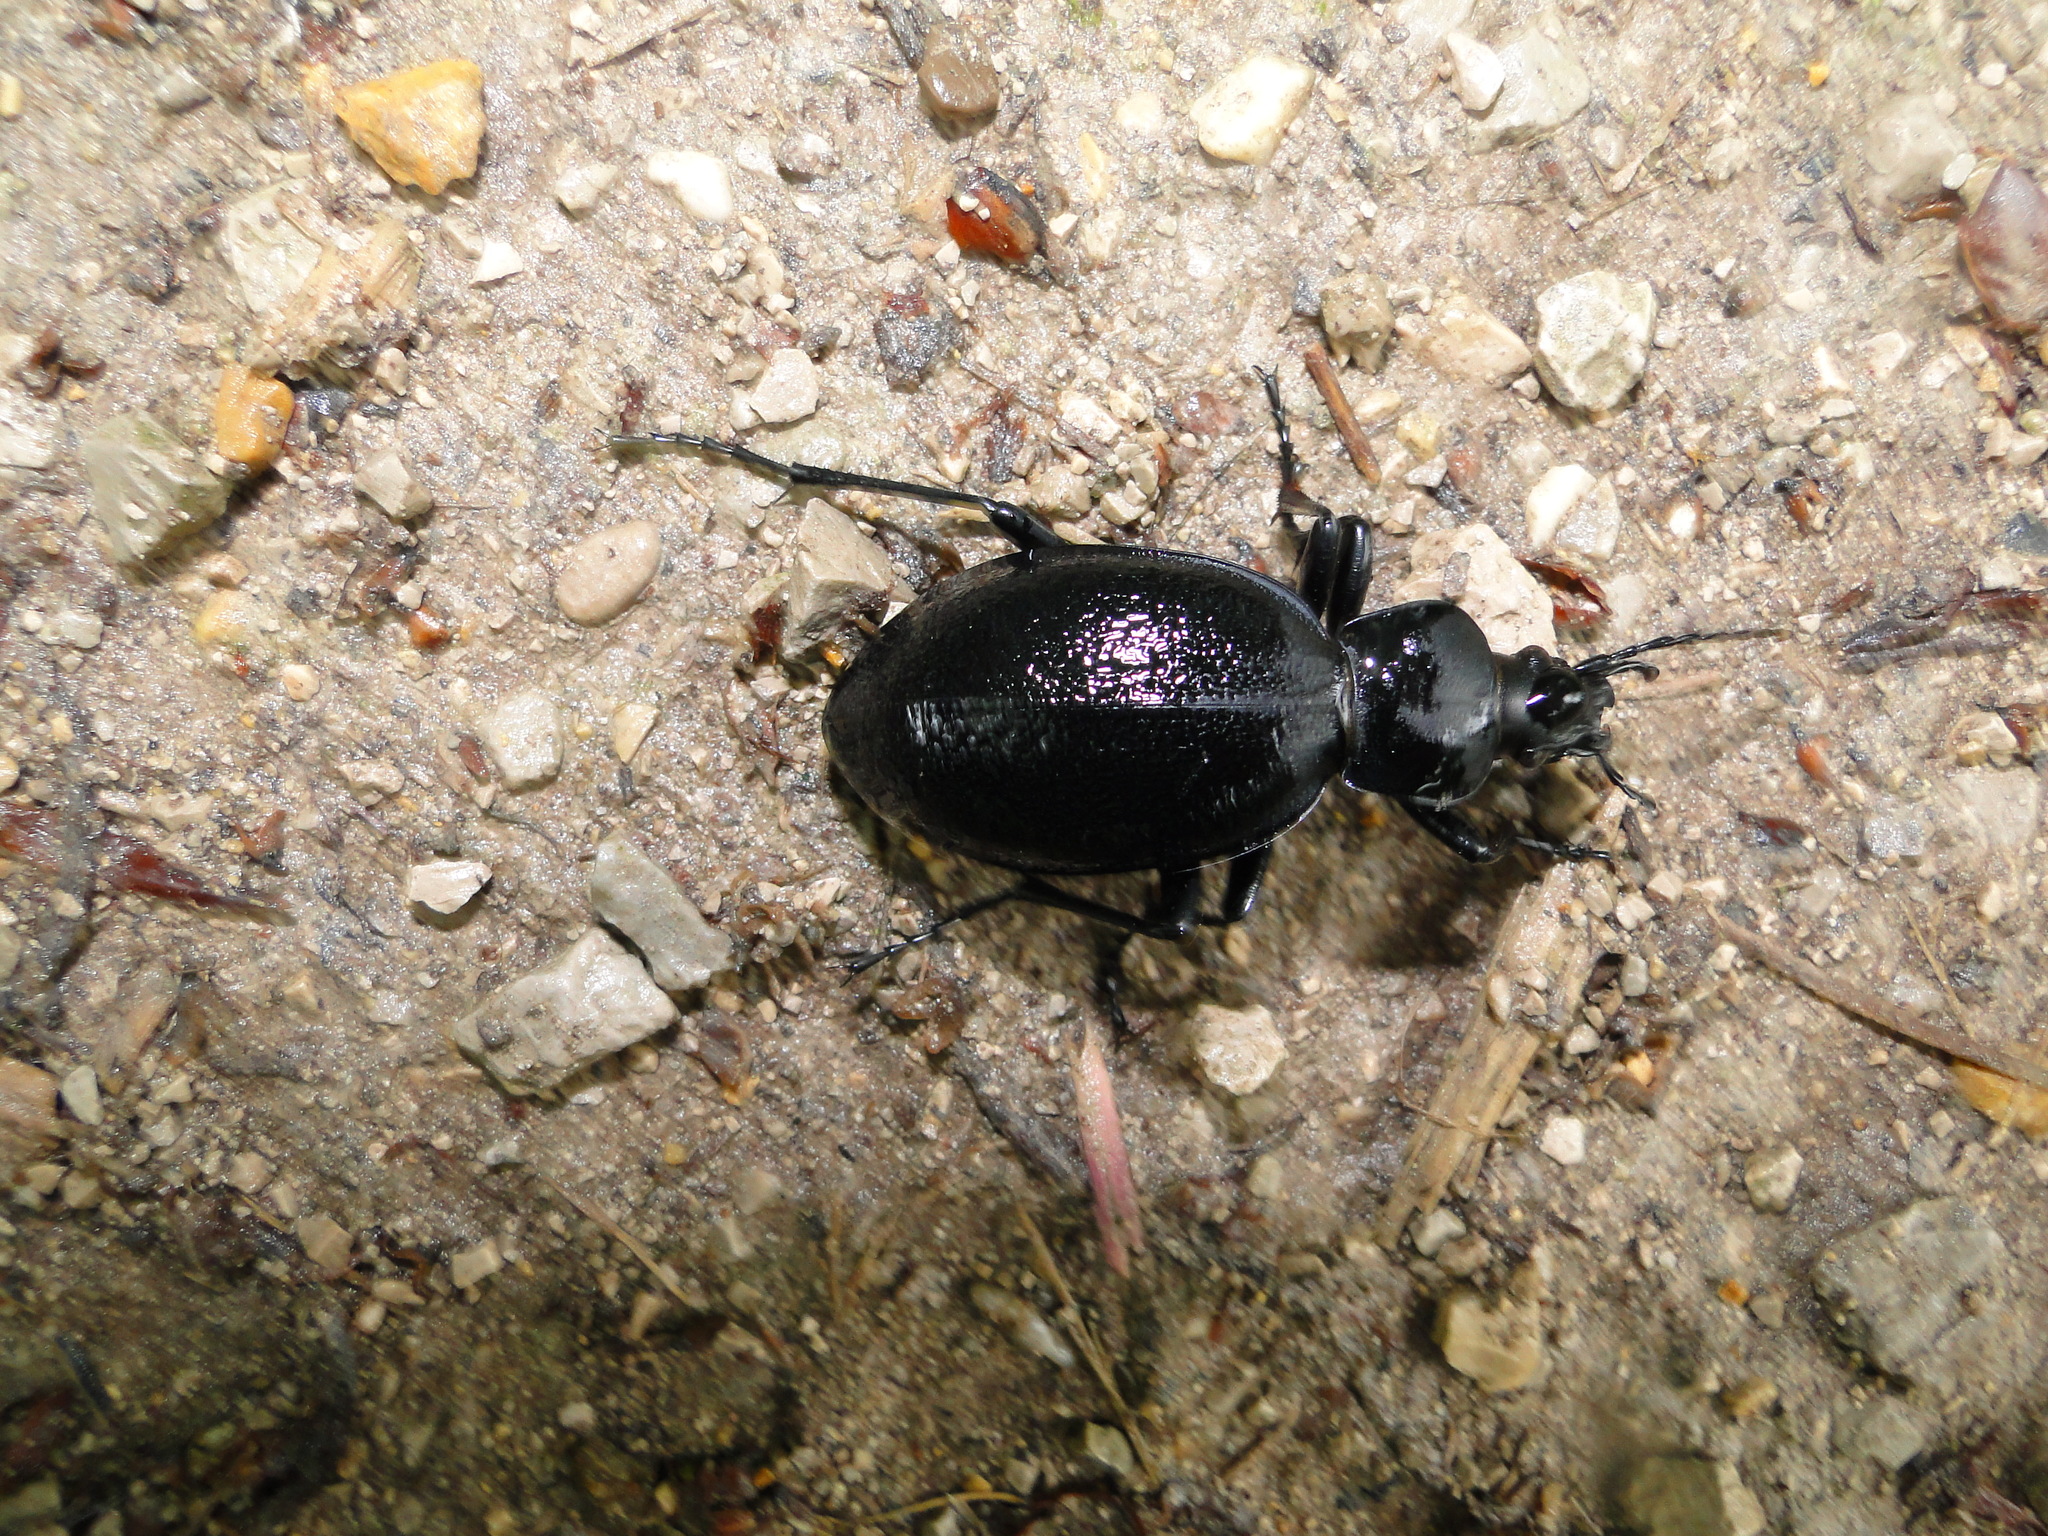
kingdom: Animalia
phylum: Arthropoda
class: Insecta
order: Coleoptera
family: Carabidae
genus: Carabus
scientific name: Carabus coriaceus
